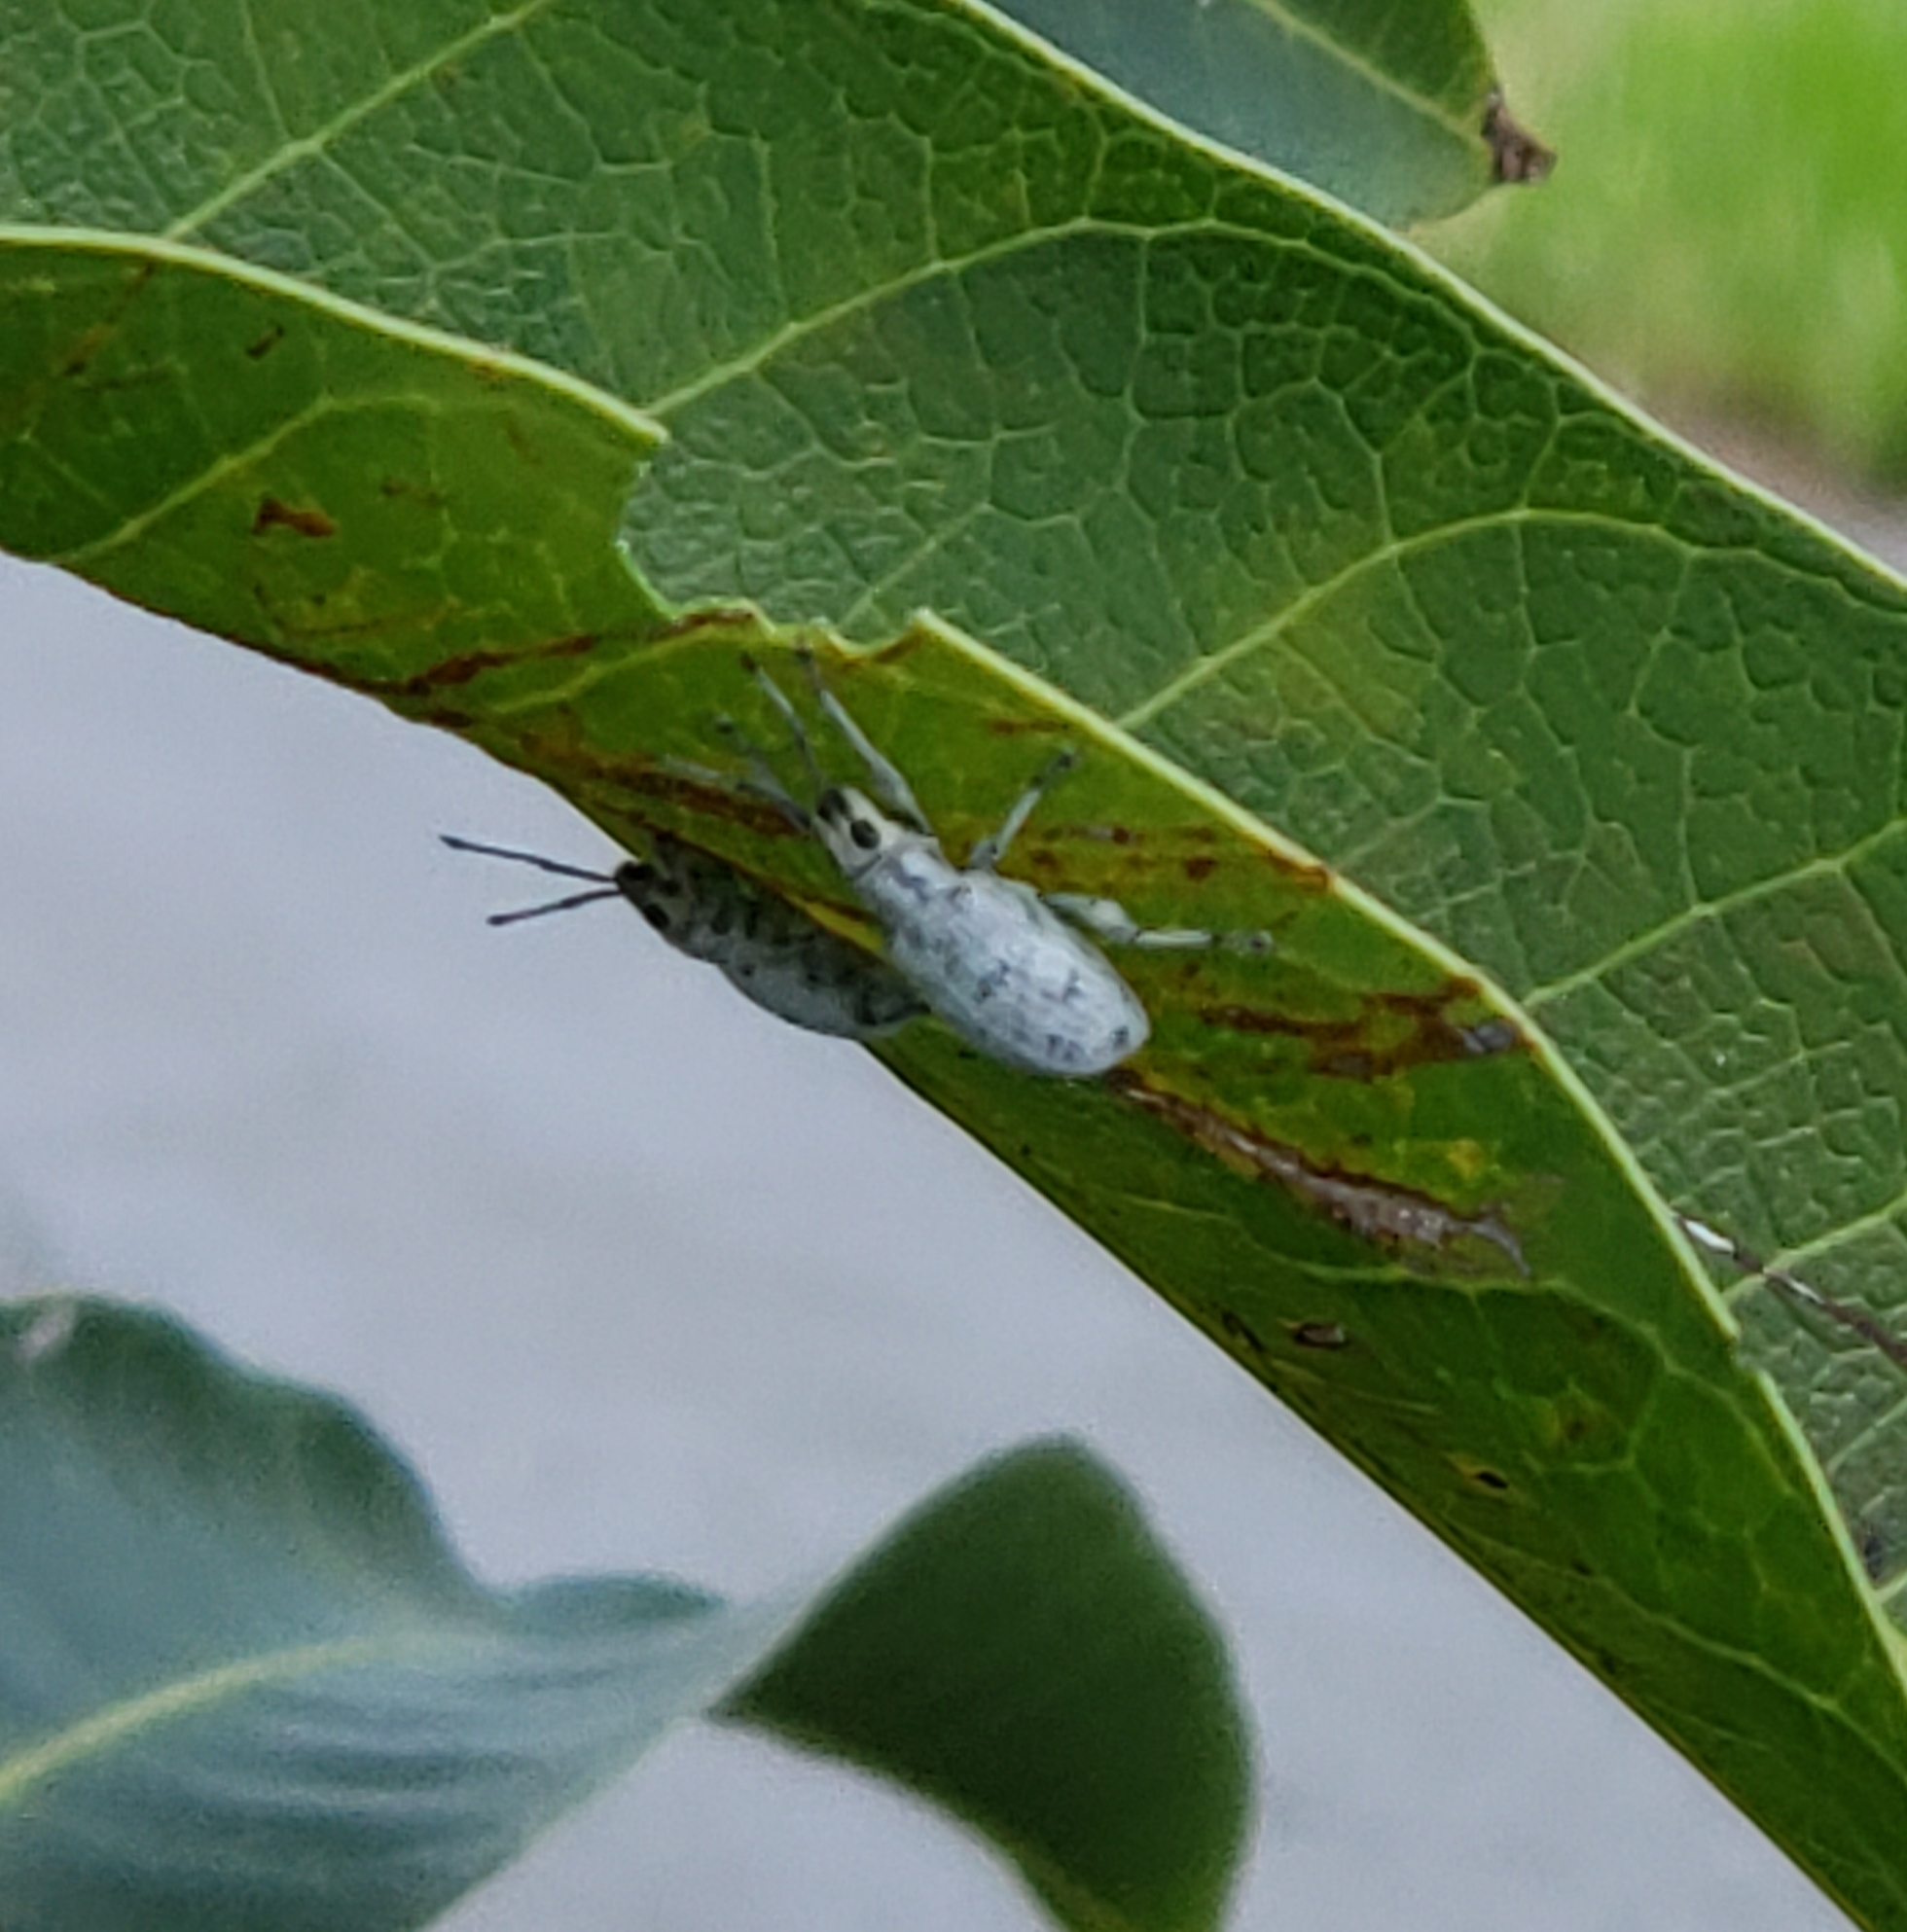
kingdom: Animalia
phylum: Arthropoda
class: Insecta
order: Coleoptera
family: Curculionidae
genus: Myllocerus
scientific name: Myllocerus undecimpustulatus
